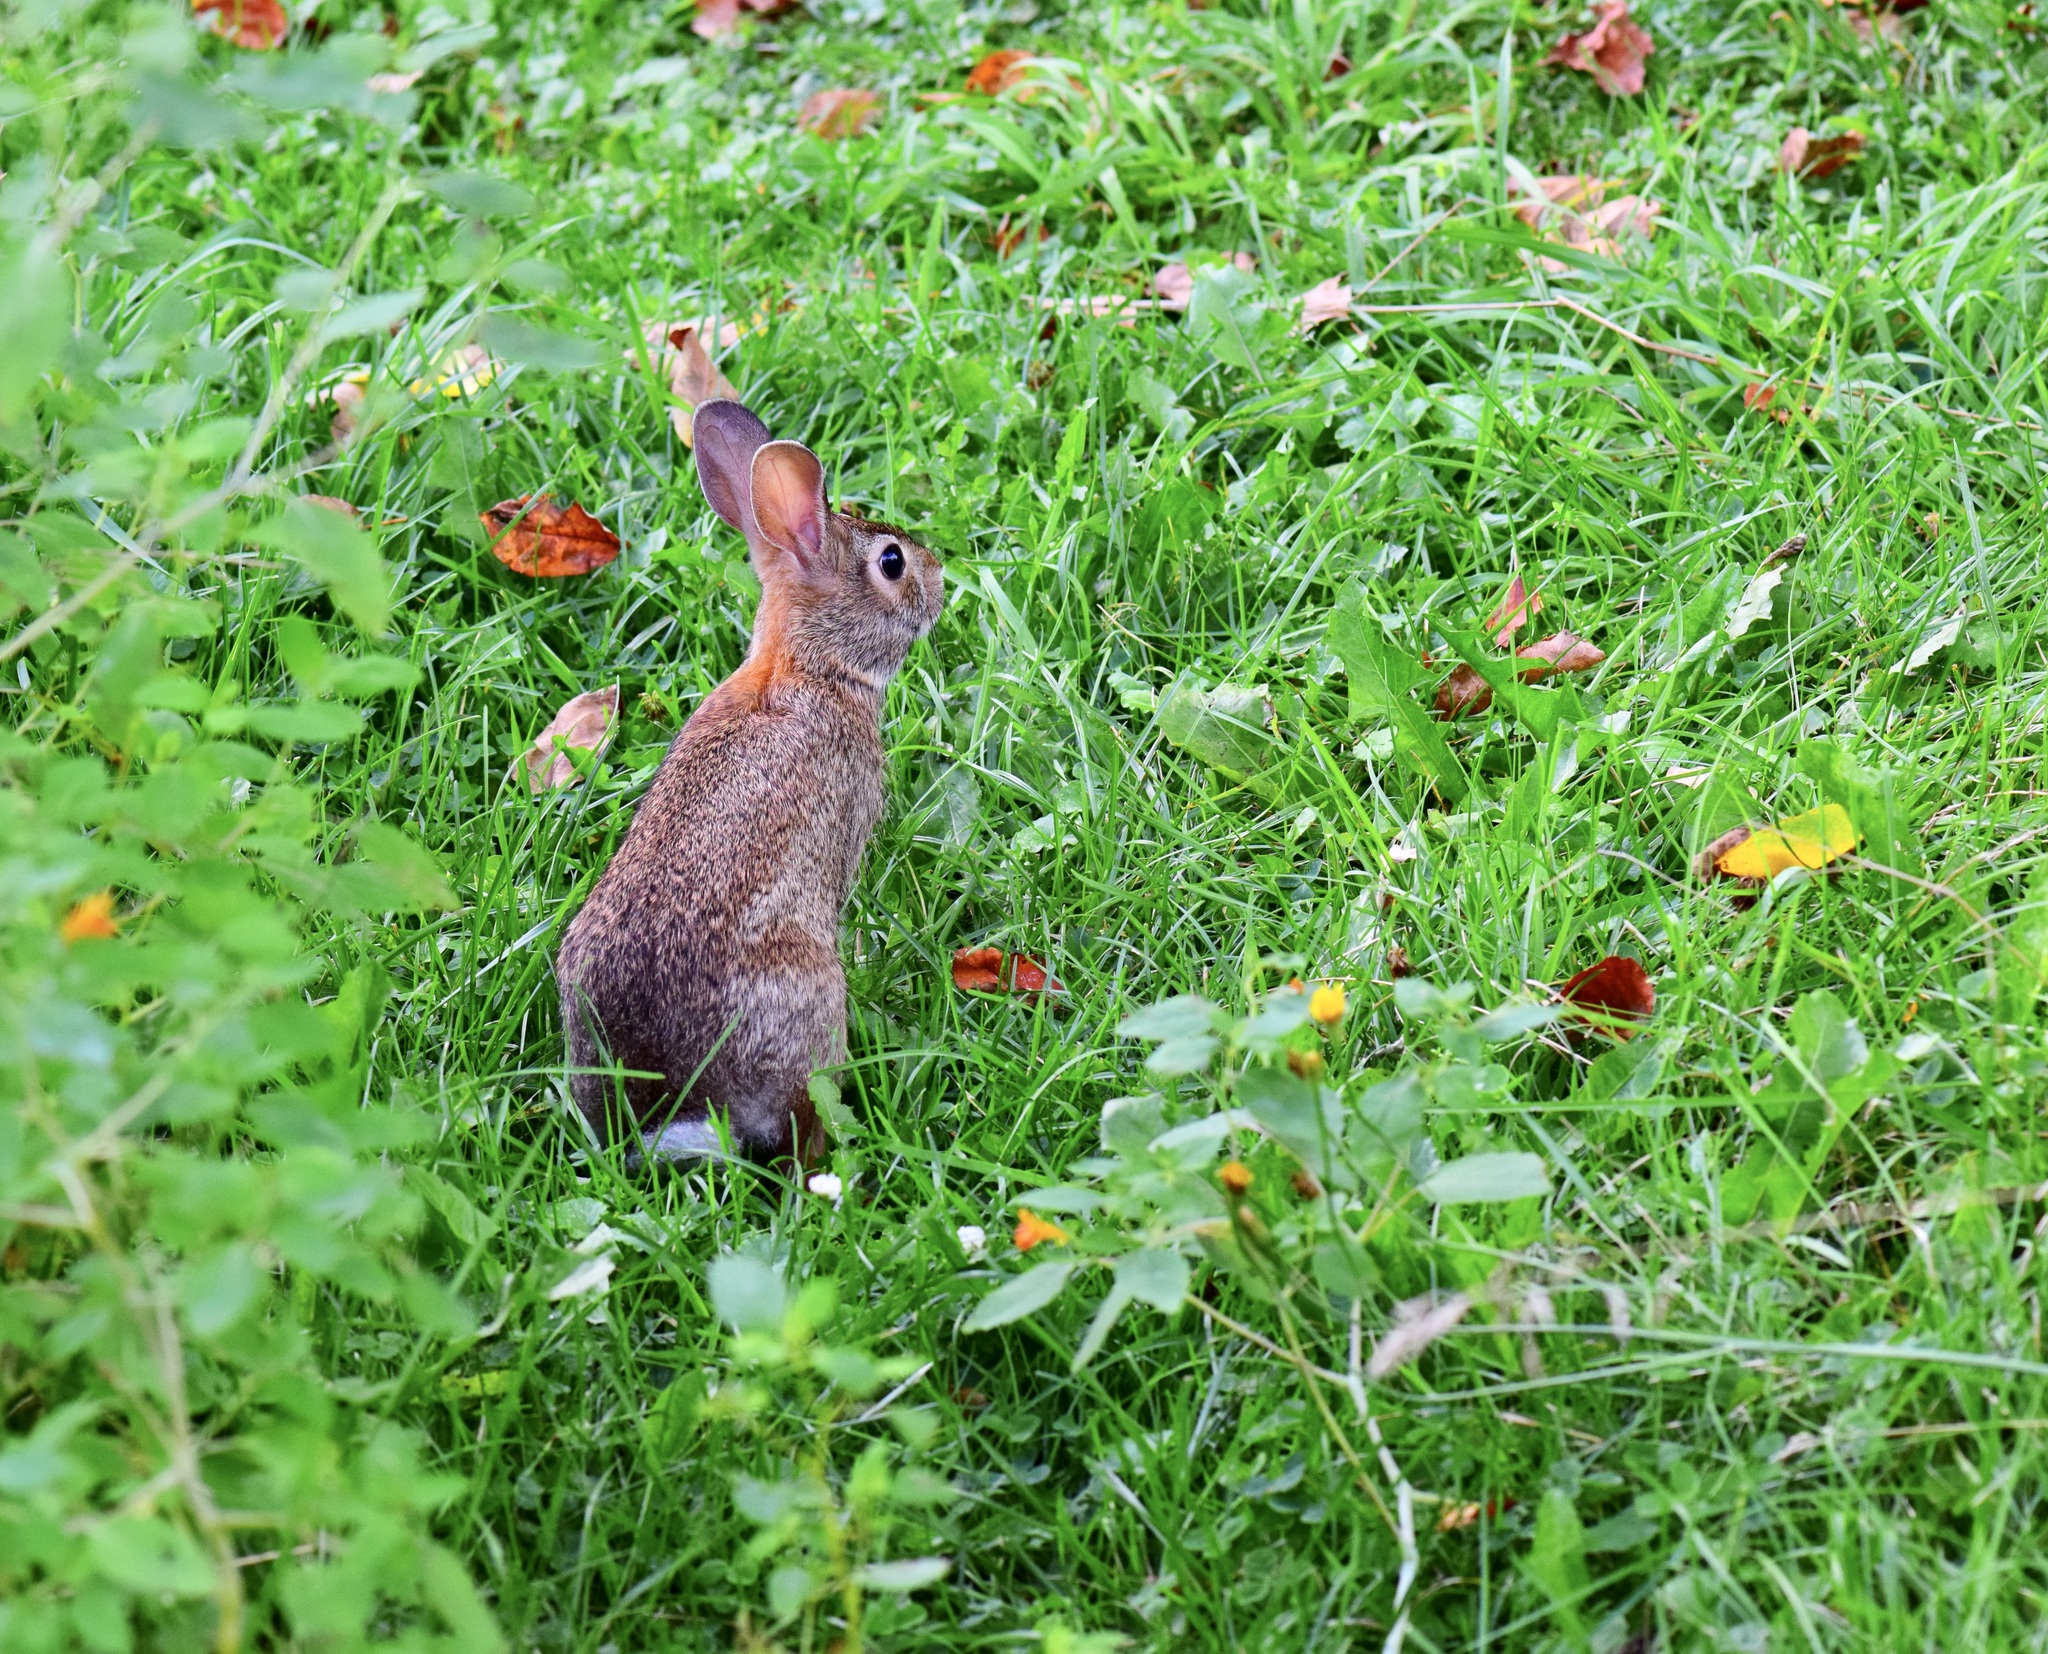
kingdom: Animalia
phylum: Chordata
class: Mammalia
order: Lagomorpha
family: Leporidae
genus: Sylvilagus
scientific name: Sylvilagus floridanus
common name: Eastern cottontail
